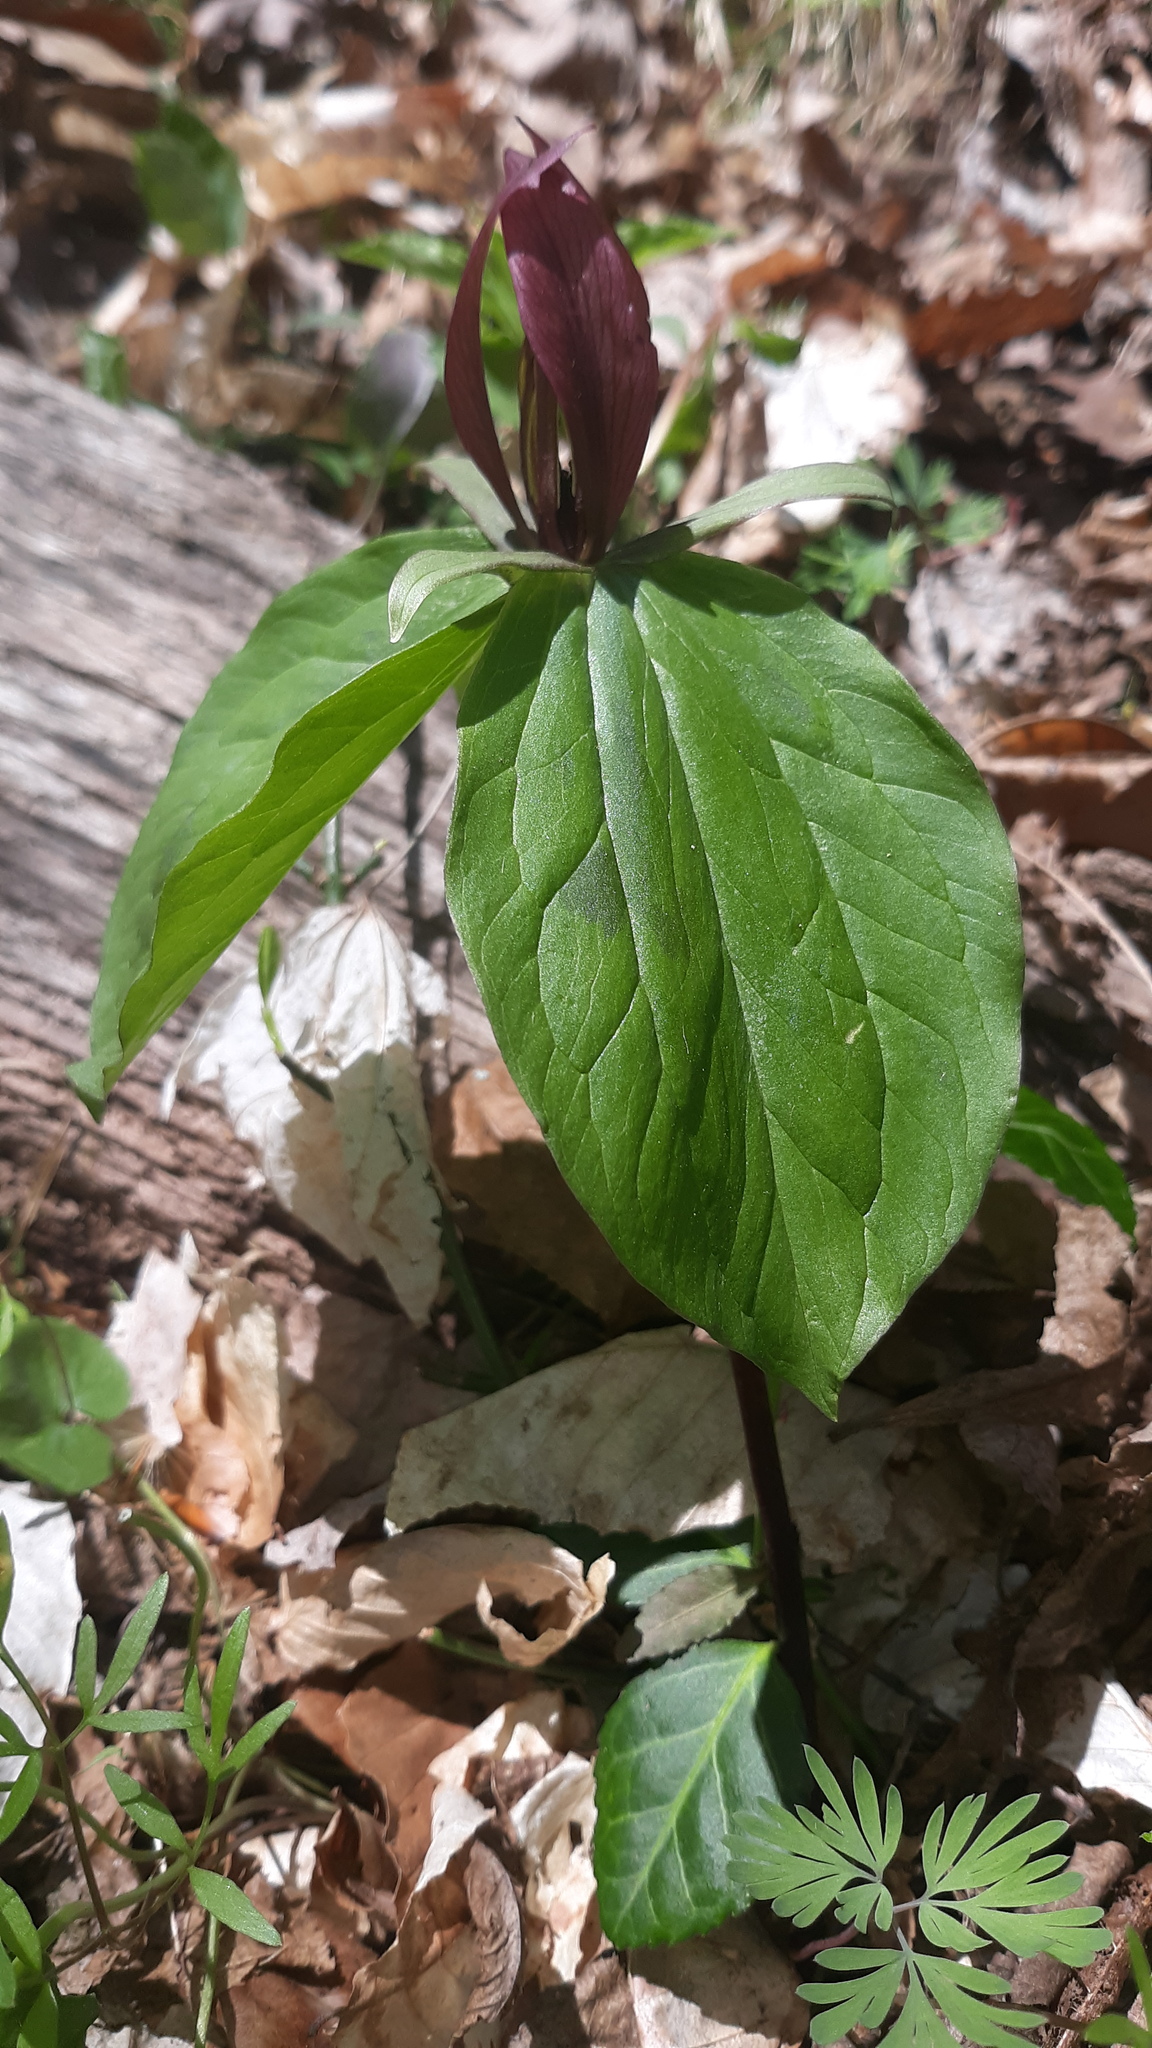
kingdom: Plantae
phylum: Tracheophyta
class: Liliopsida
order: Liliales
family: Melanthiaceae
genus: Trillium
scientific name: Trillium sessile
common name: Sessile trillium
